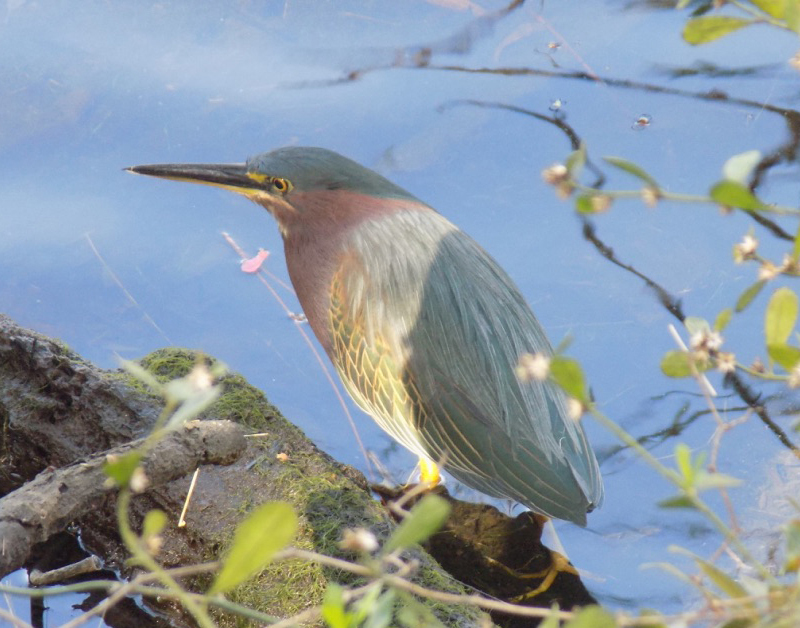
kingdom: Animalia
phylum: Chordata
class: Aves
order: Pelecaniformes
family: Ardeidae
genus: Butorides
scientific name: Butorides virescens
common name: Green heron
